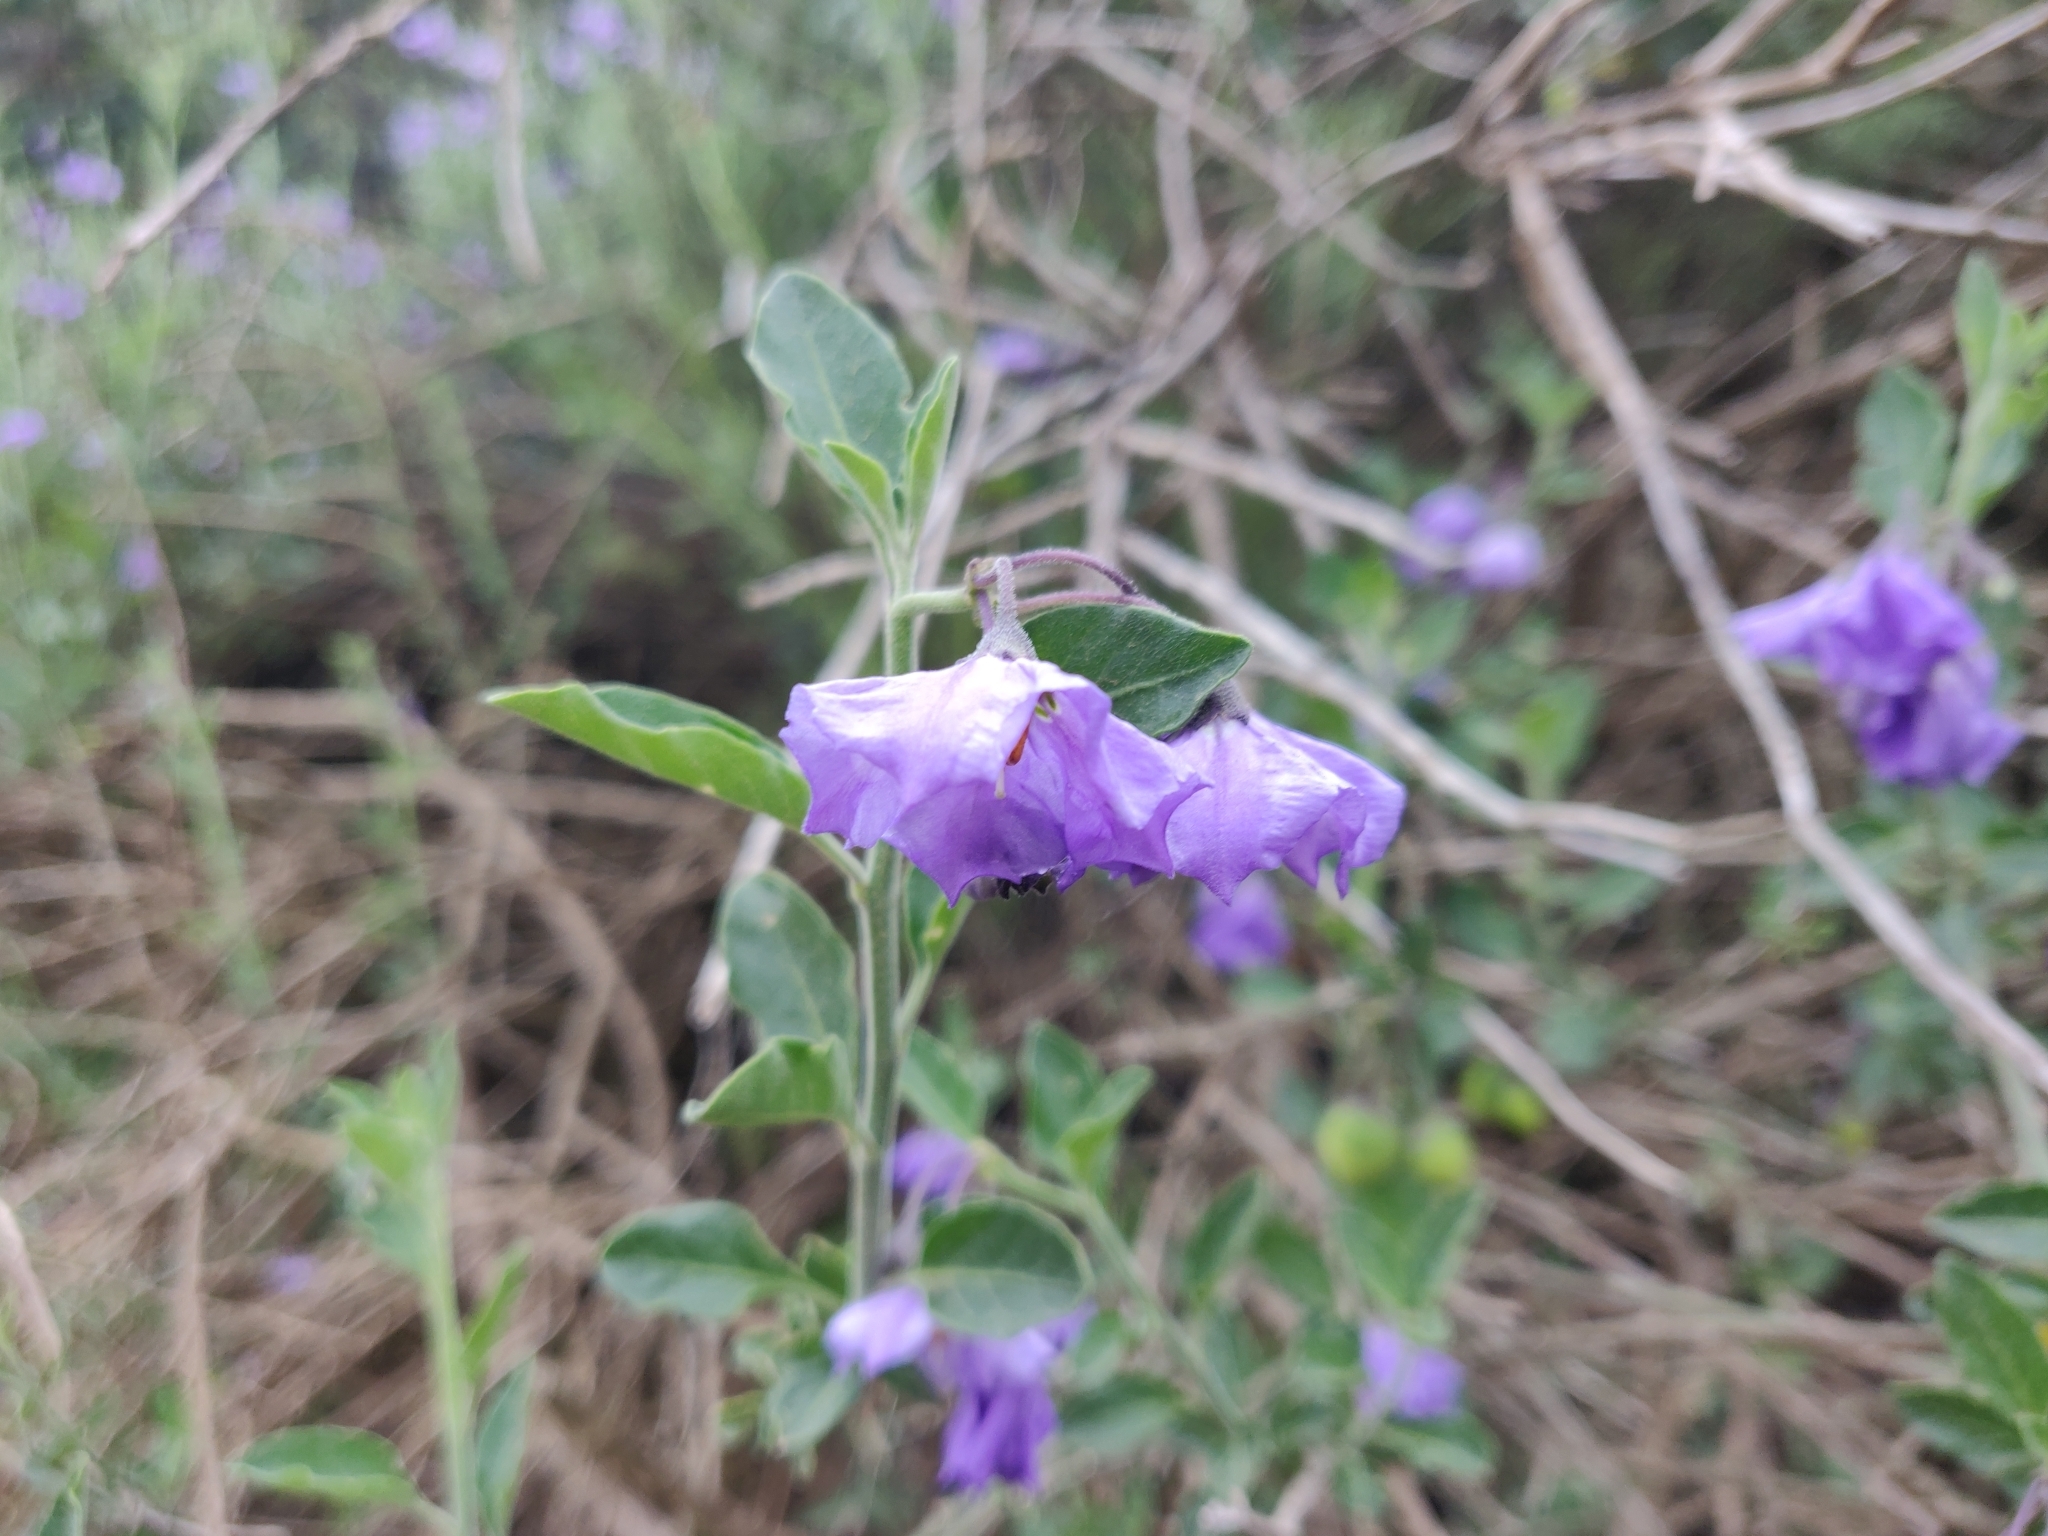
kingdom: Plantae
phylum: Tracheophyta
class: Magnoliopsida
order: Solanales
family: Solanaceae
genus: Solanum
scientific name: Solanum umbelliferum
